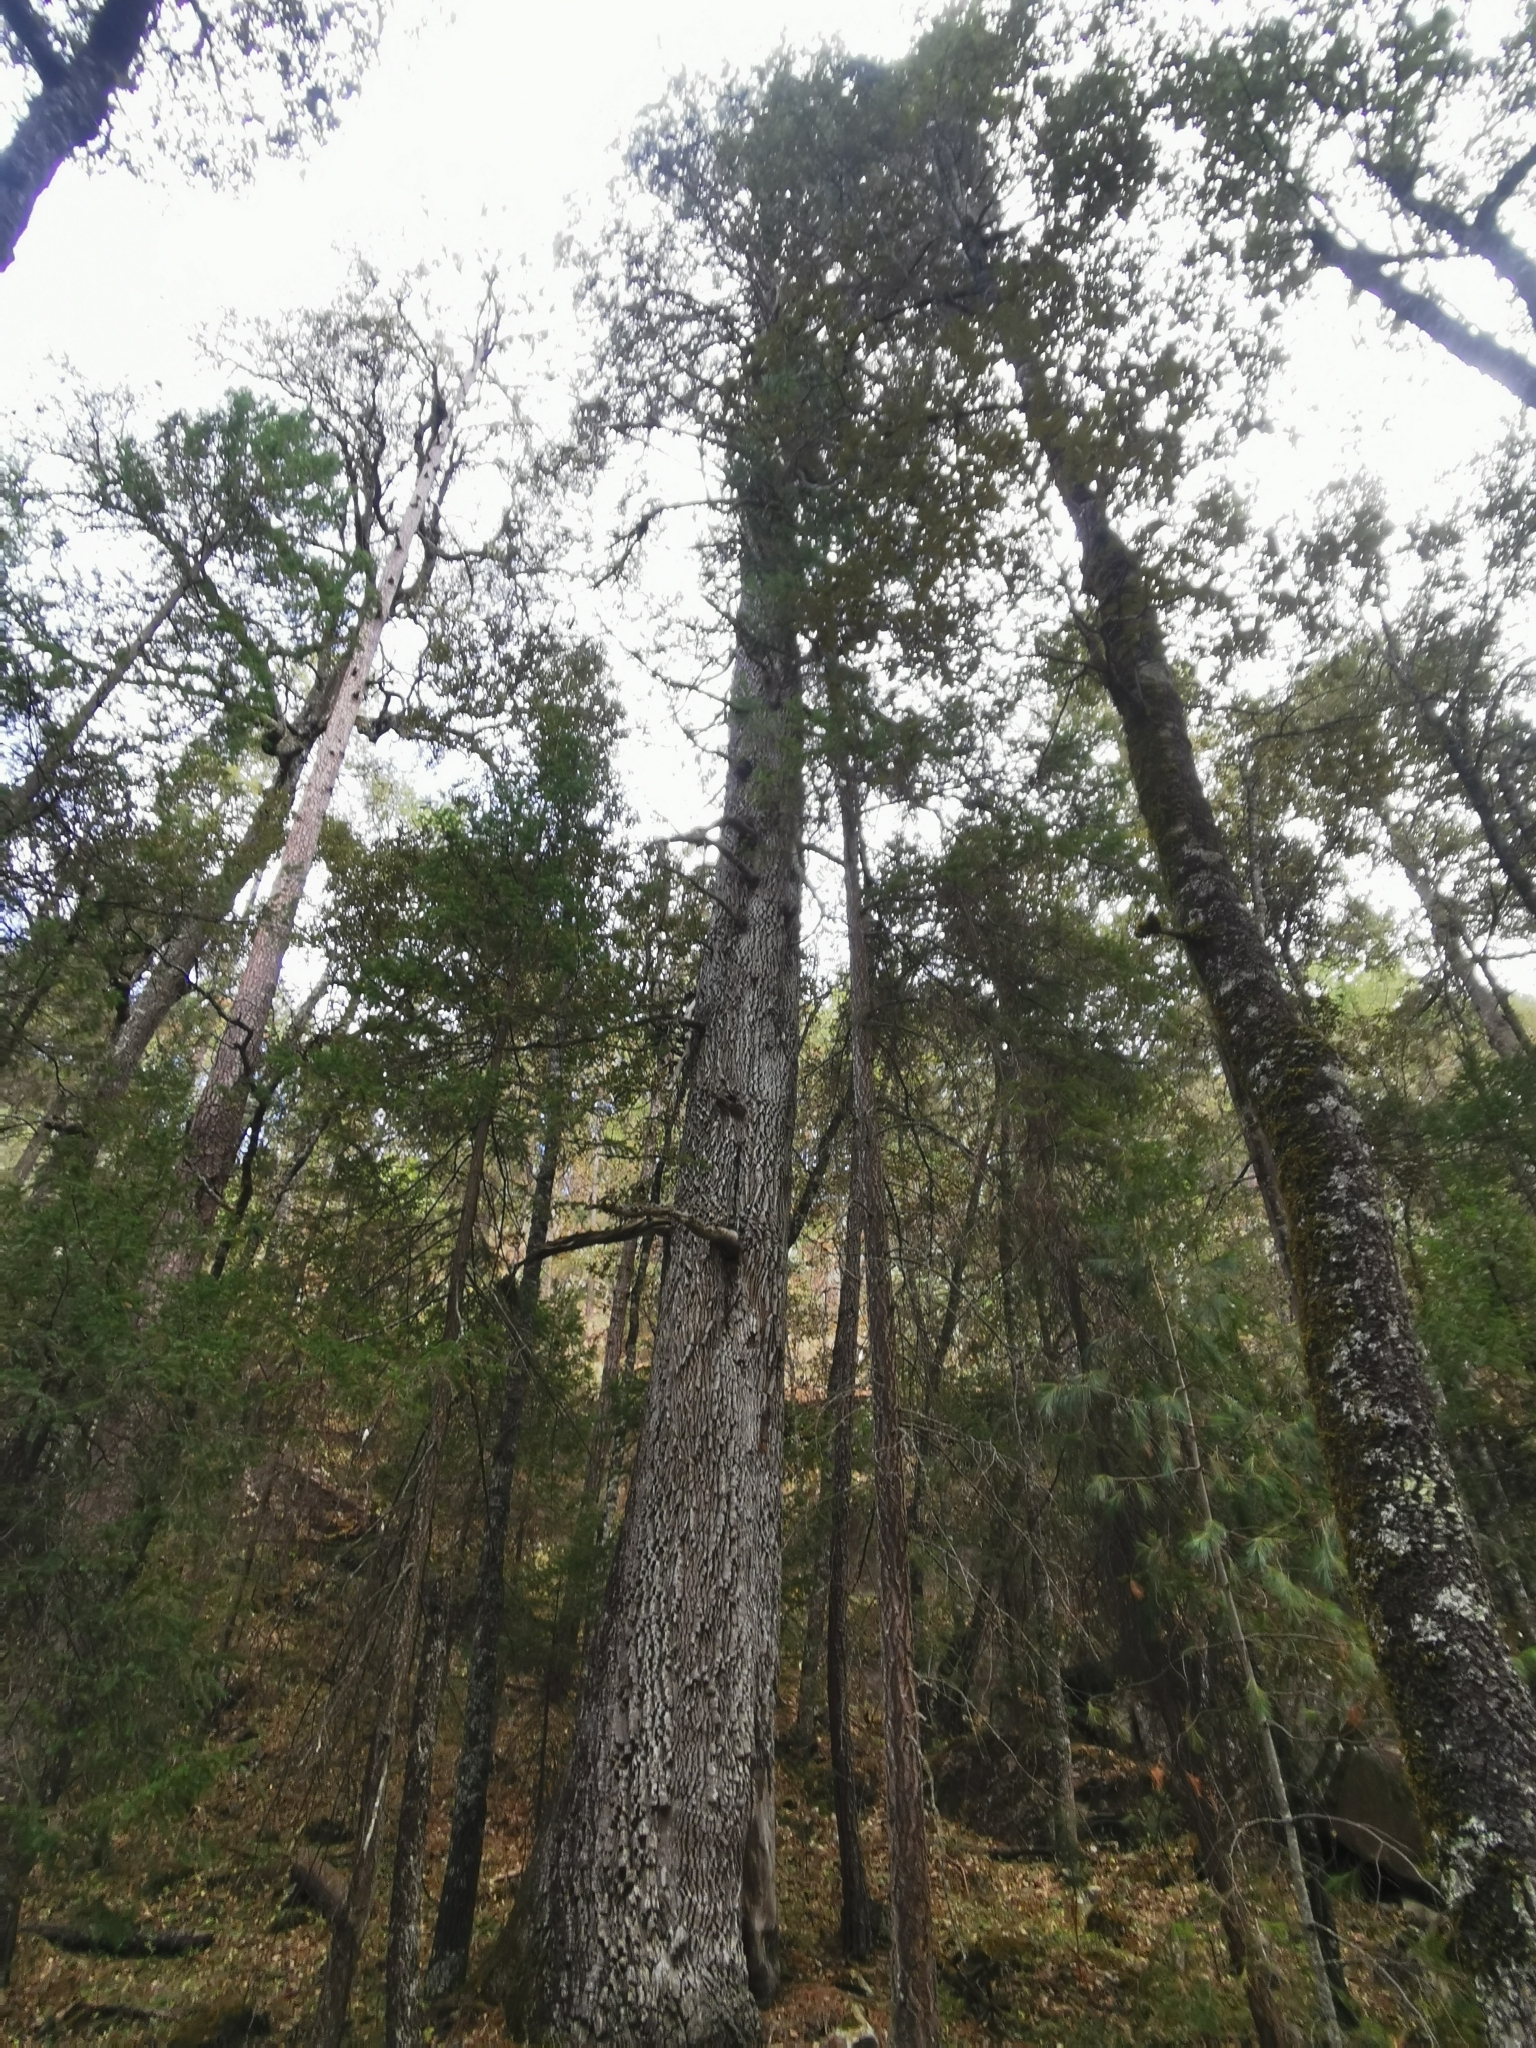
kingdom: Plantae
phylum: Tracheophyta
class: Pinopsida
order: Pinales
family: Cupressaceae
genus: Juniperus
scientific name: Juniperus deppeana
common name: Alligator juniper
